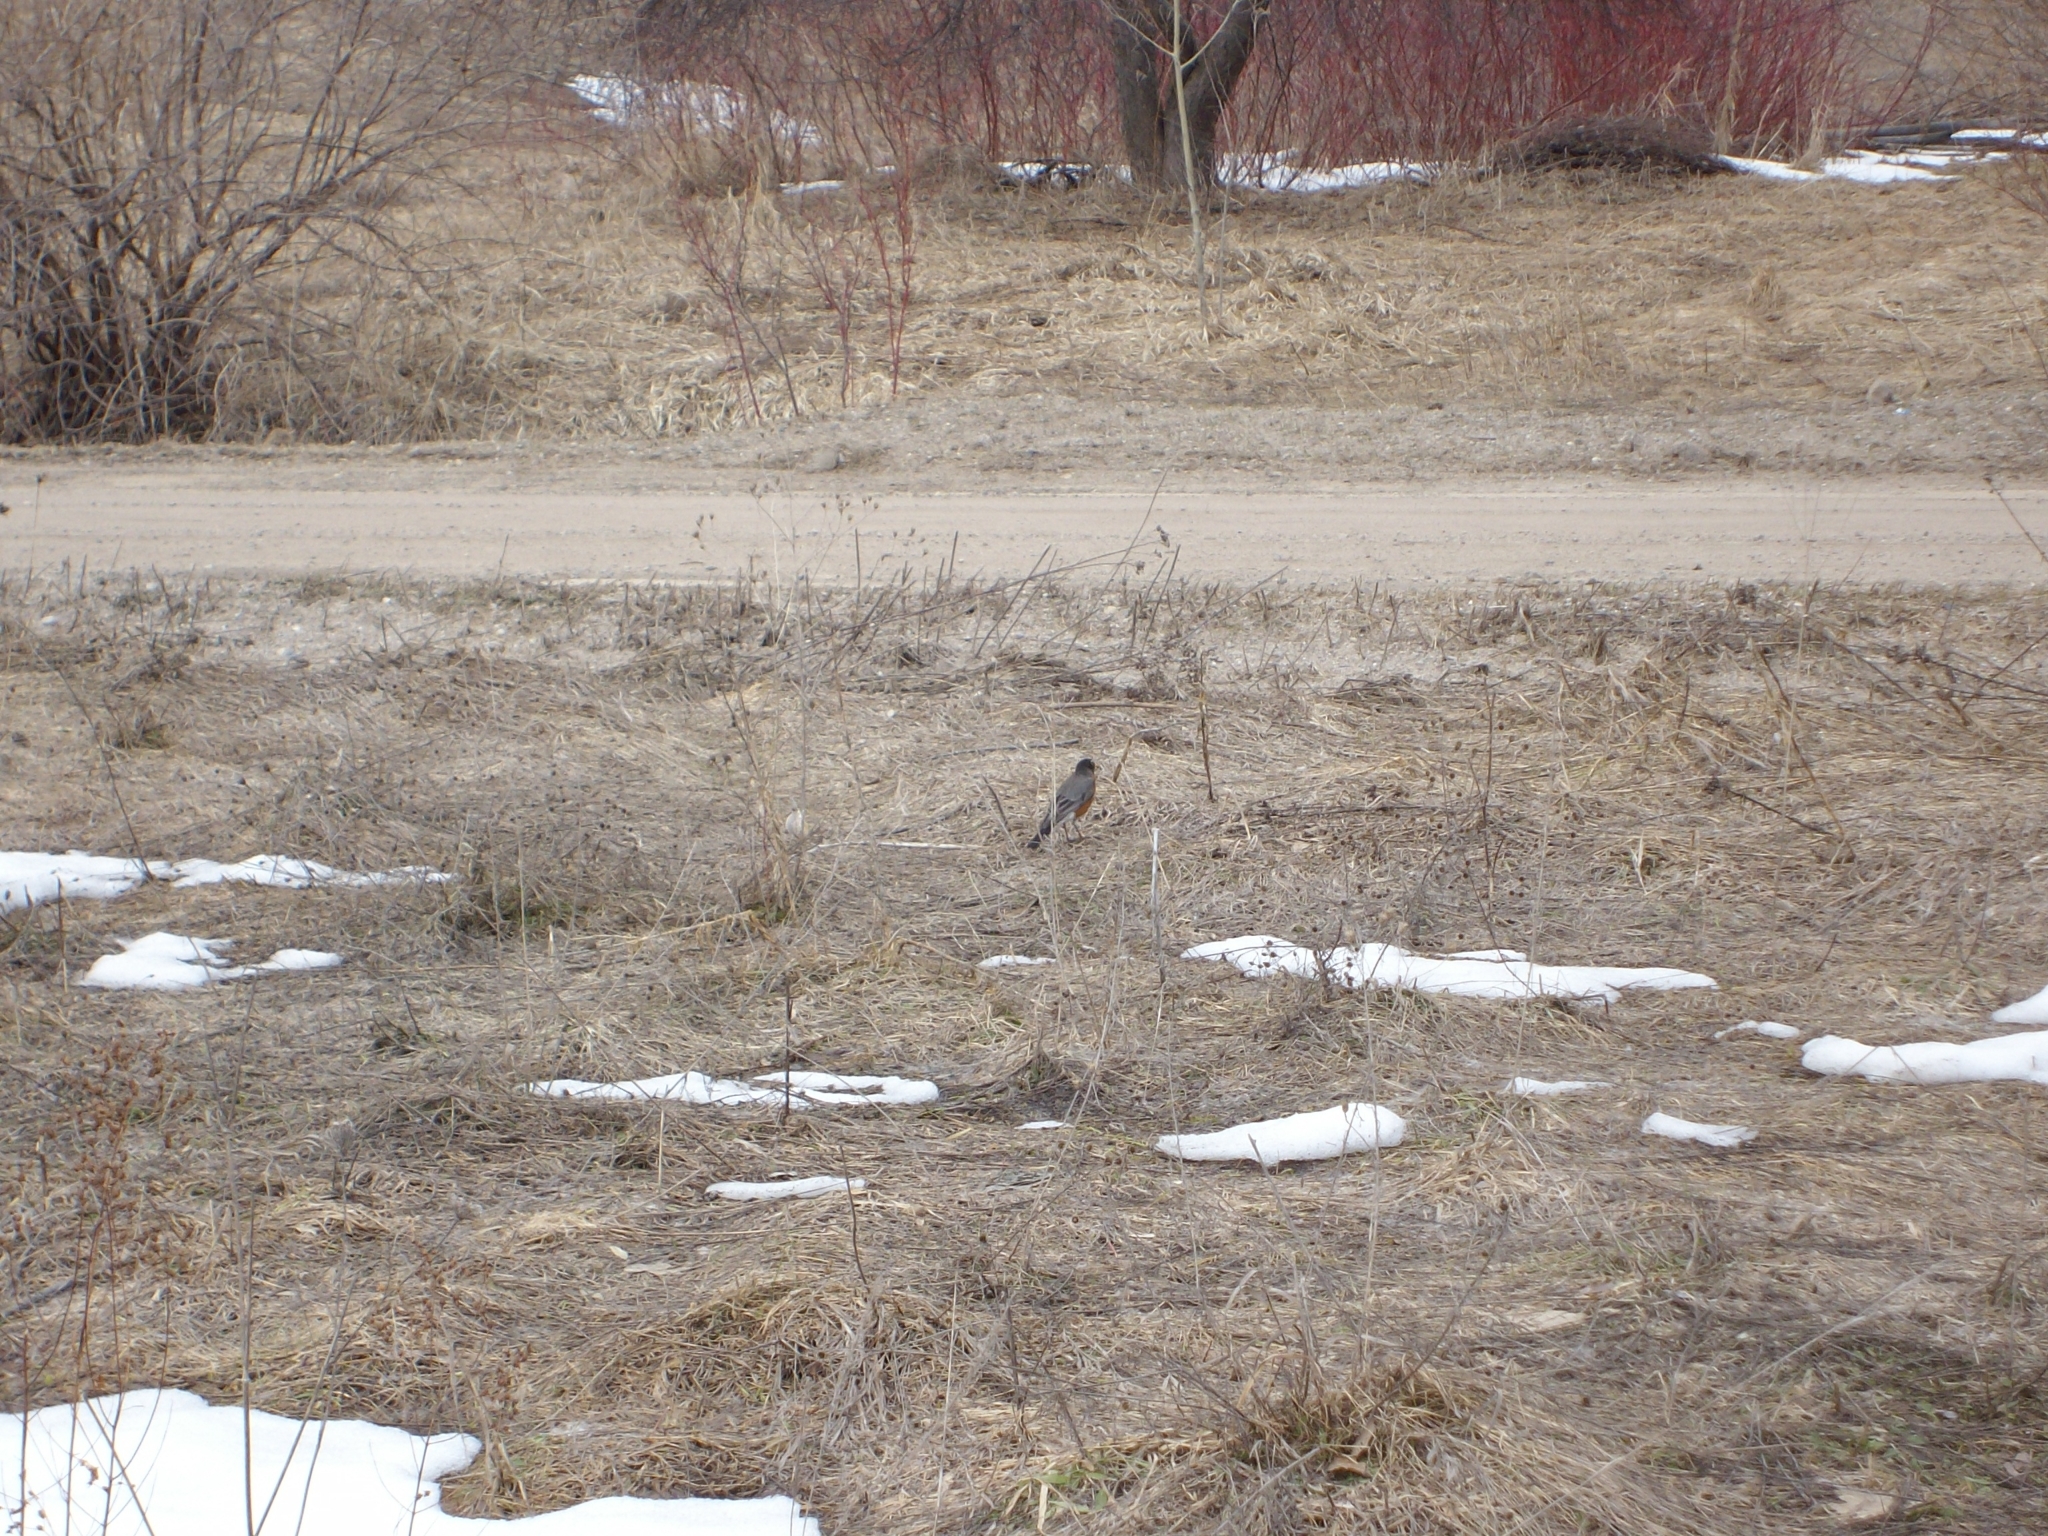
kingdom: Animalia
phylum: Chordata
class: Aves
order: Passeriformes
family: Turdidae
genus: Turdus
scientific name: Turdus migratorius
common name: American robin
